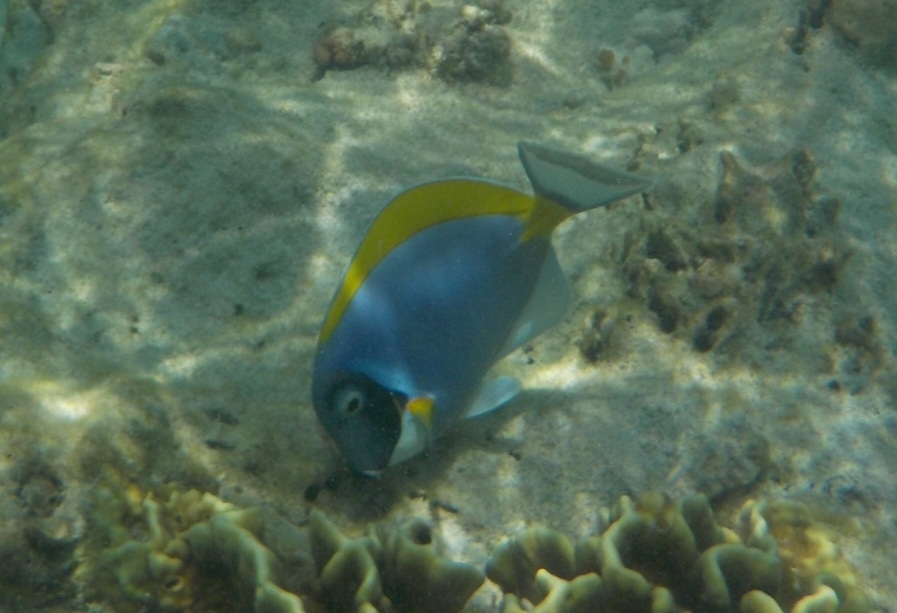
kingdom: Animalia
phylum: Chordata
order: Perciformes
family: Acanthuridae
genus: Acanthurus
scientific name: Acanthurus leucosternon
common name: Blue surgeonfish
